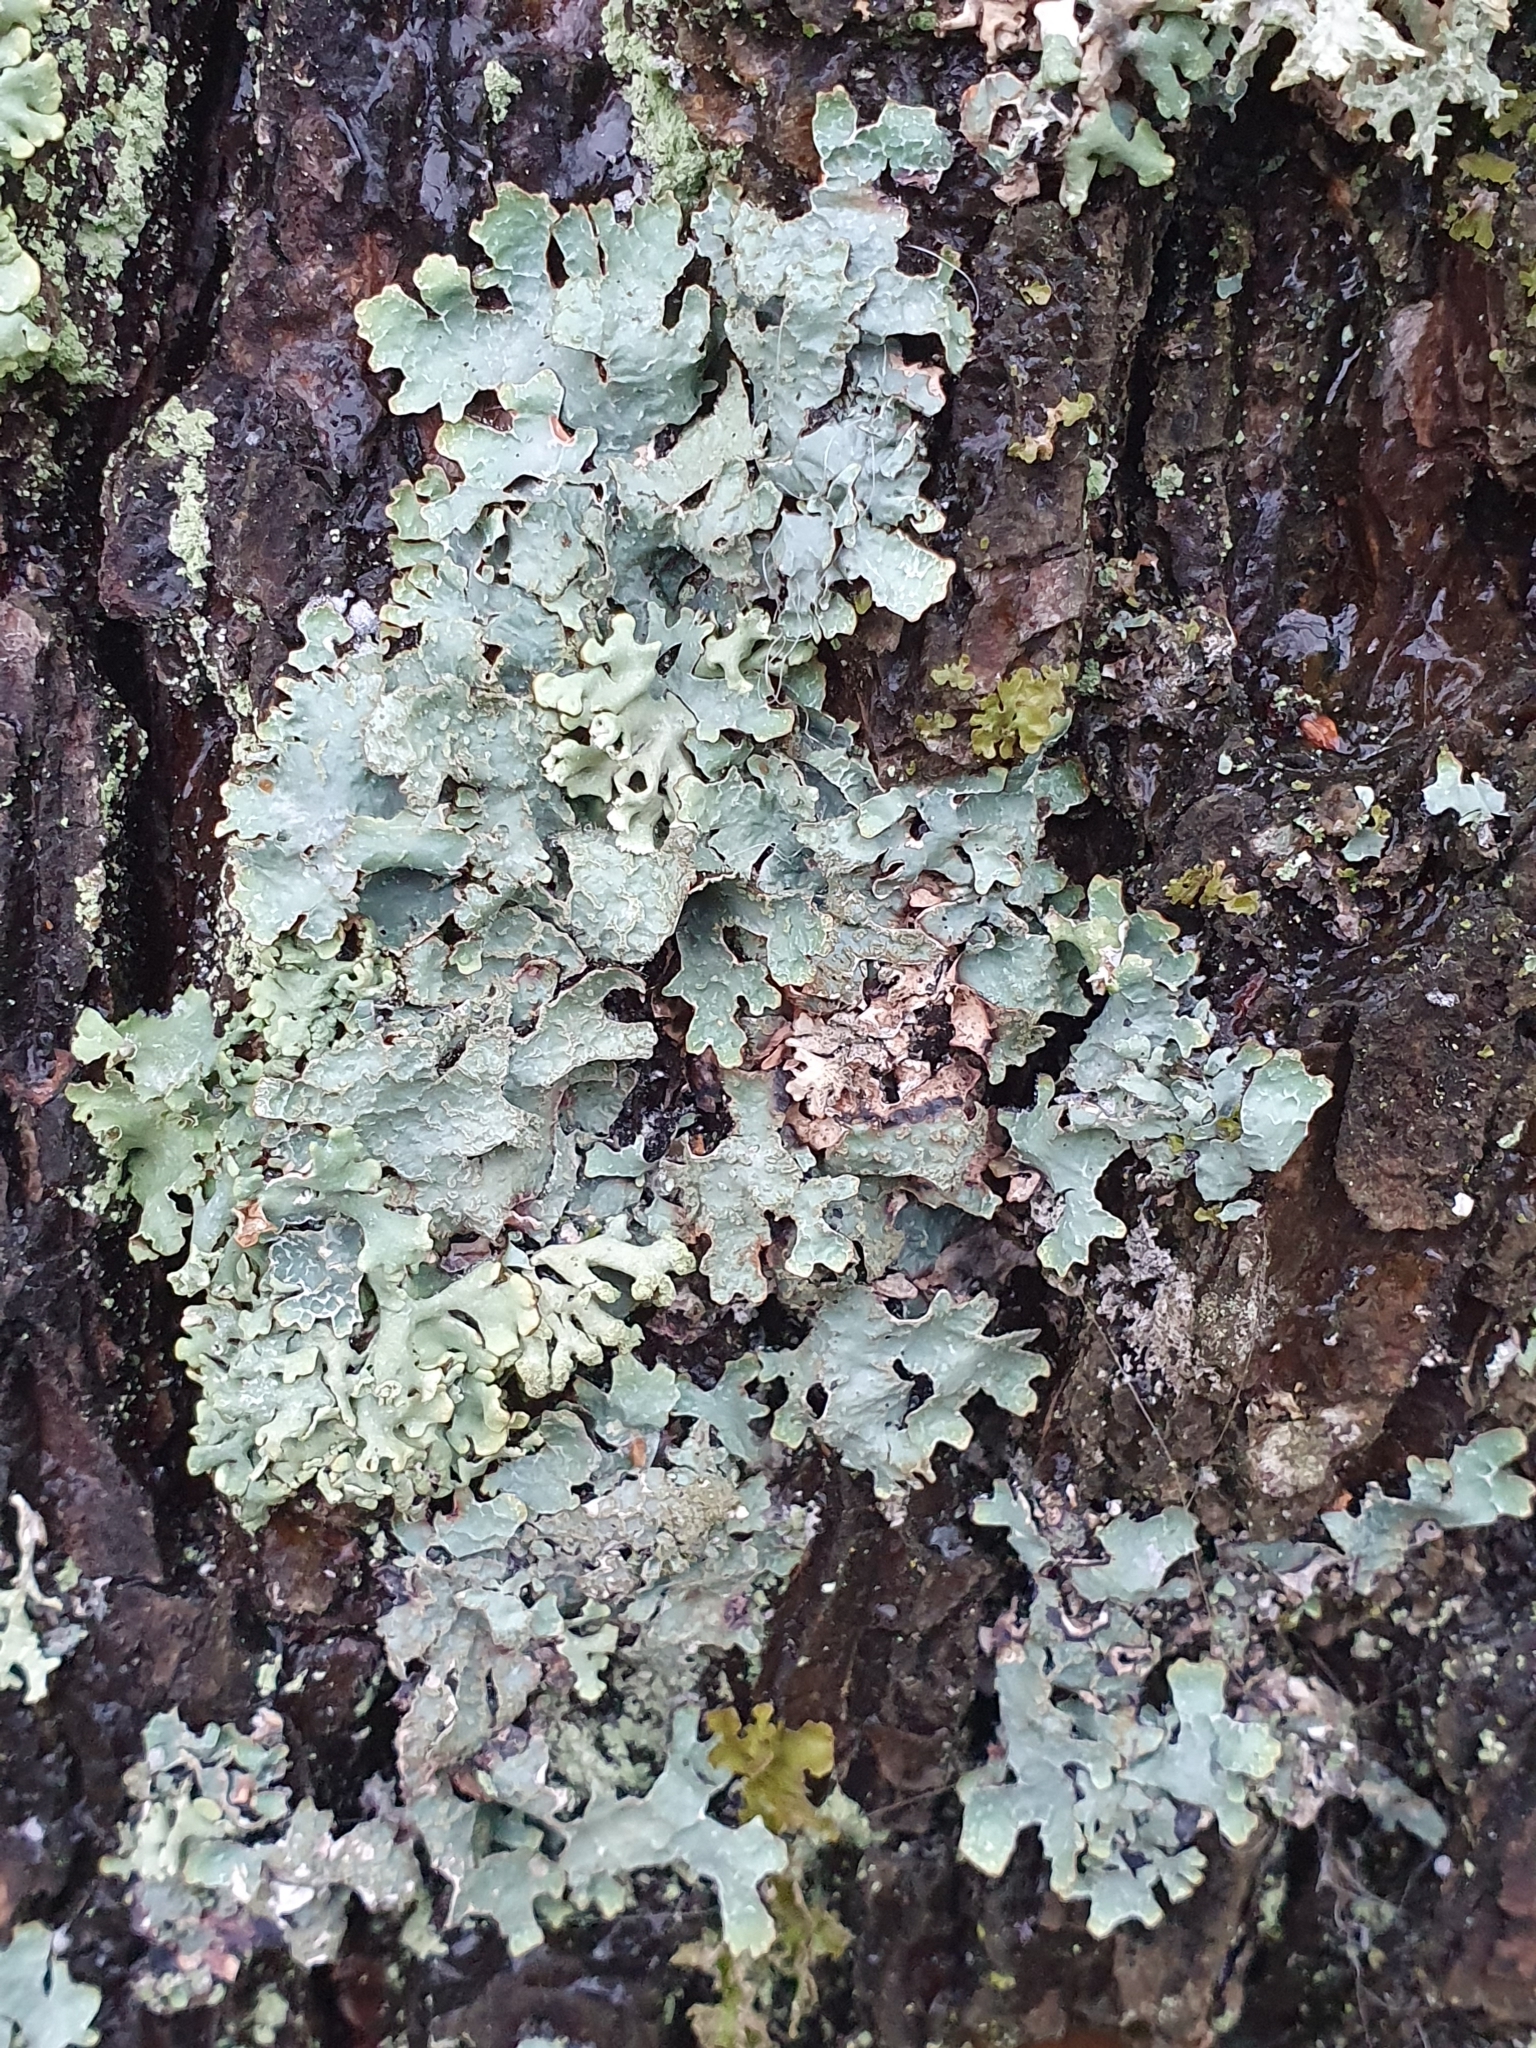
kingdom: Fungi
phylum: Ascomycota
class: Lecanoromycetes
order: Lecanorales
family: Parmeliaceae
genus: Parmelia
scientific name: Parmelia sulcata
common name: Netted shield lichen
